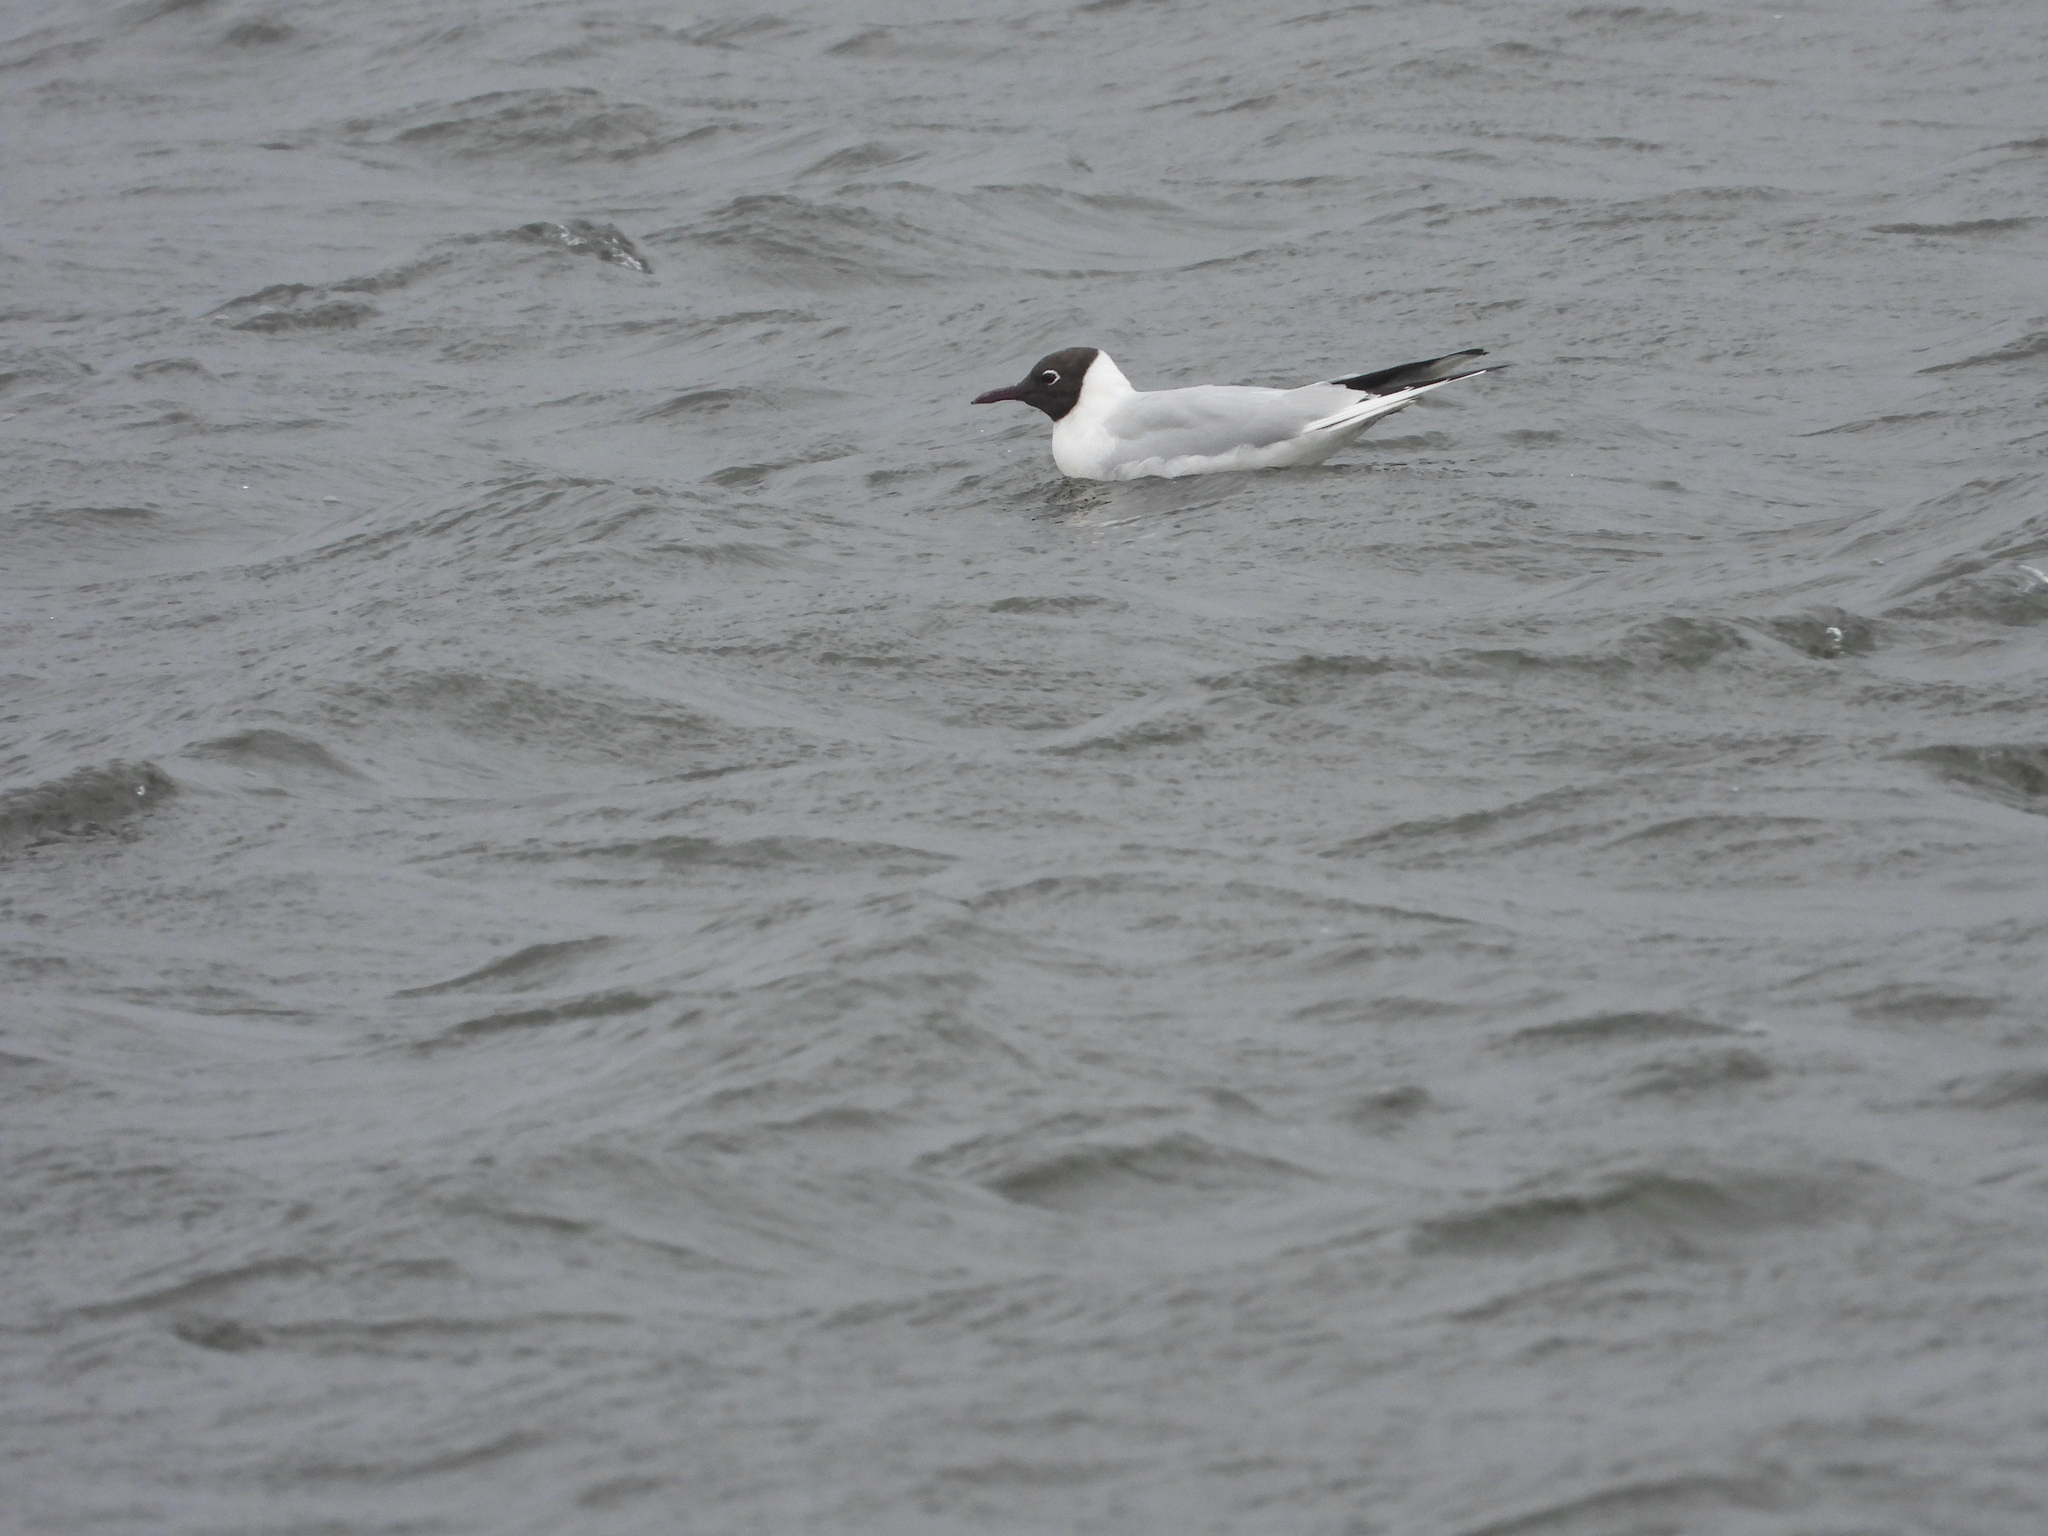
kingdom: Animalia
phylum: Chordata
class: Aves
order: Charadriiformes
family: Laridae
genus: Chroicocephalus
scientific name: Chroicocephalus ridibundus
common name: Black-headed gull
